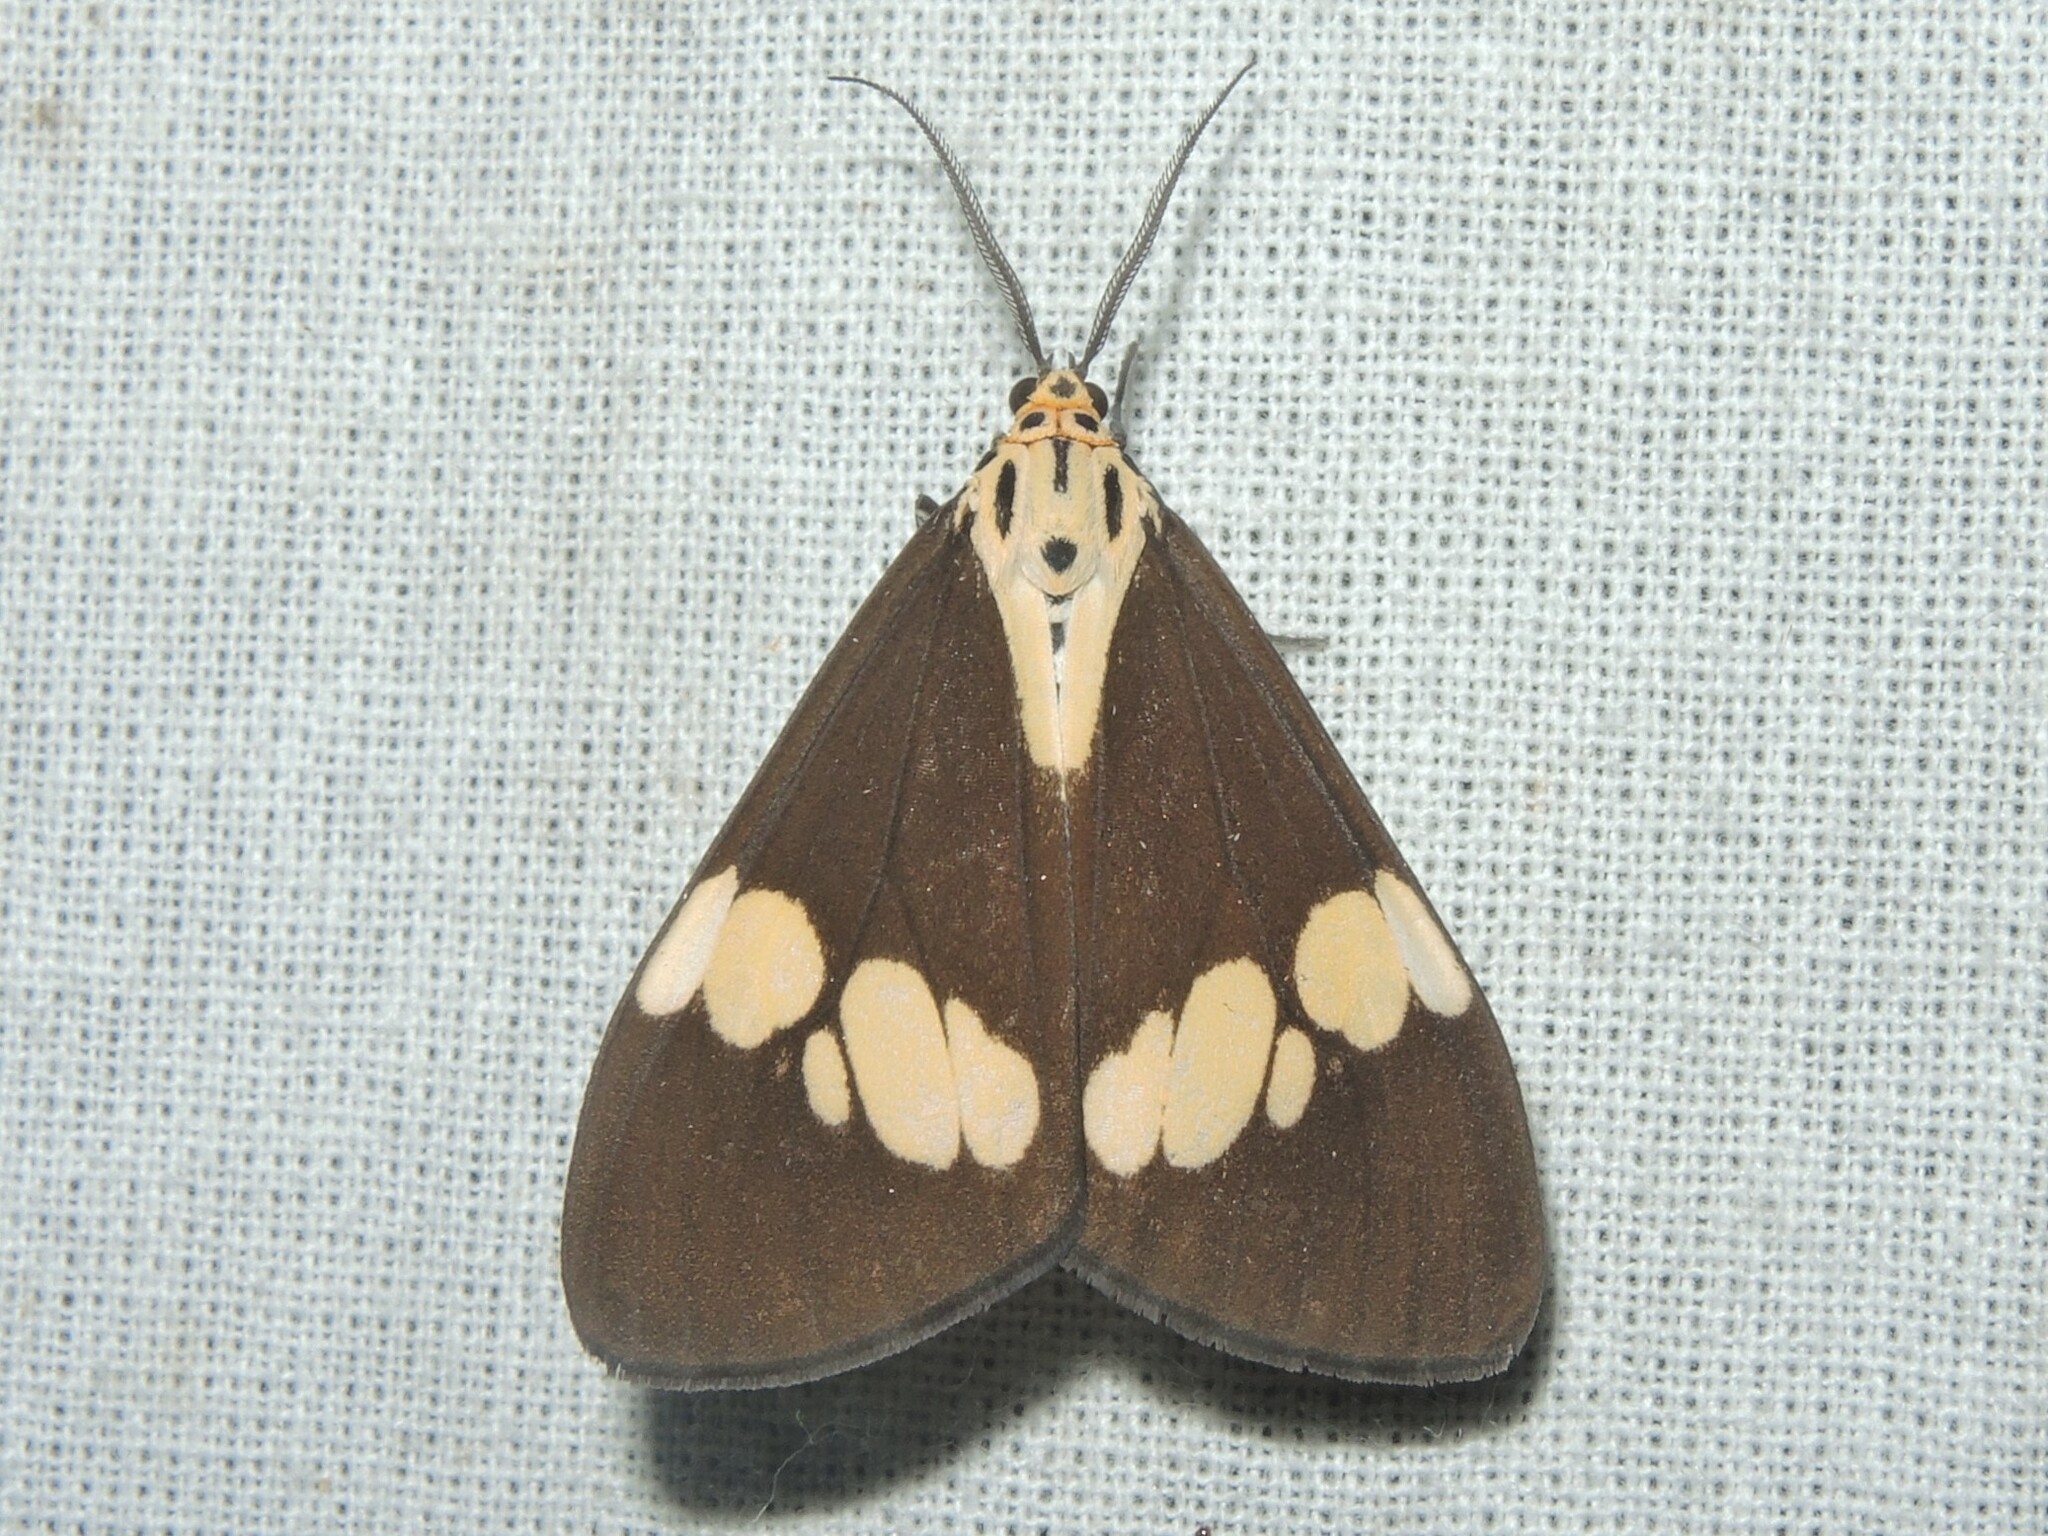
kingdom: Animalia
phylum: Arthropoda
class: Insecta
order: Lepidoptera
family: Erebidae
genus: Nyctemera
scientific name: Nyctemera lacticinia
